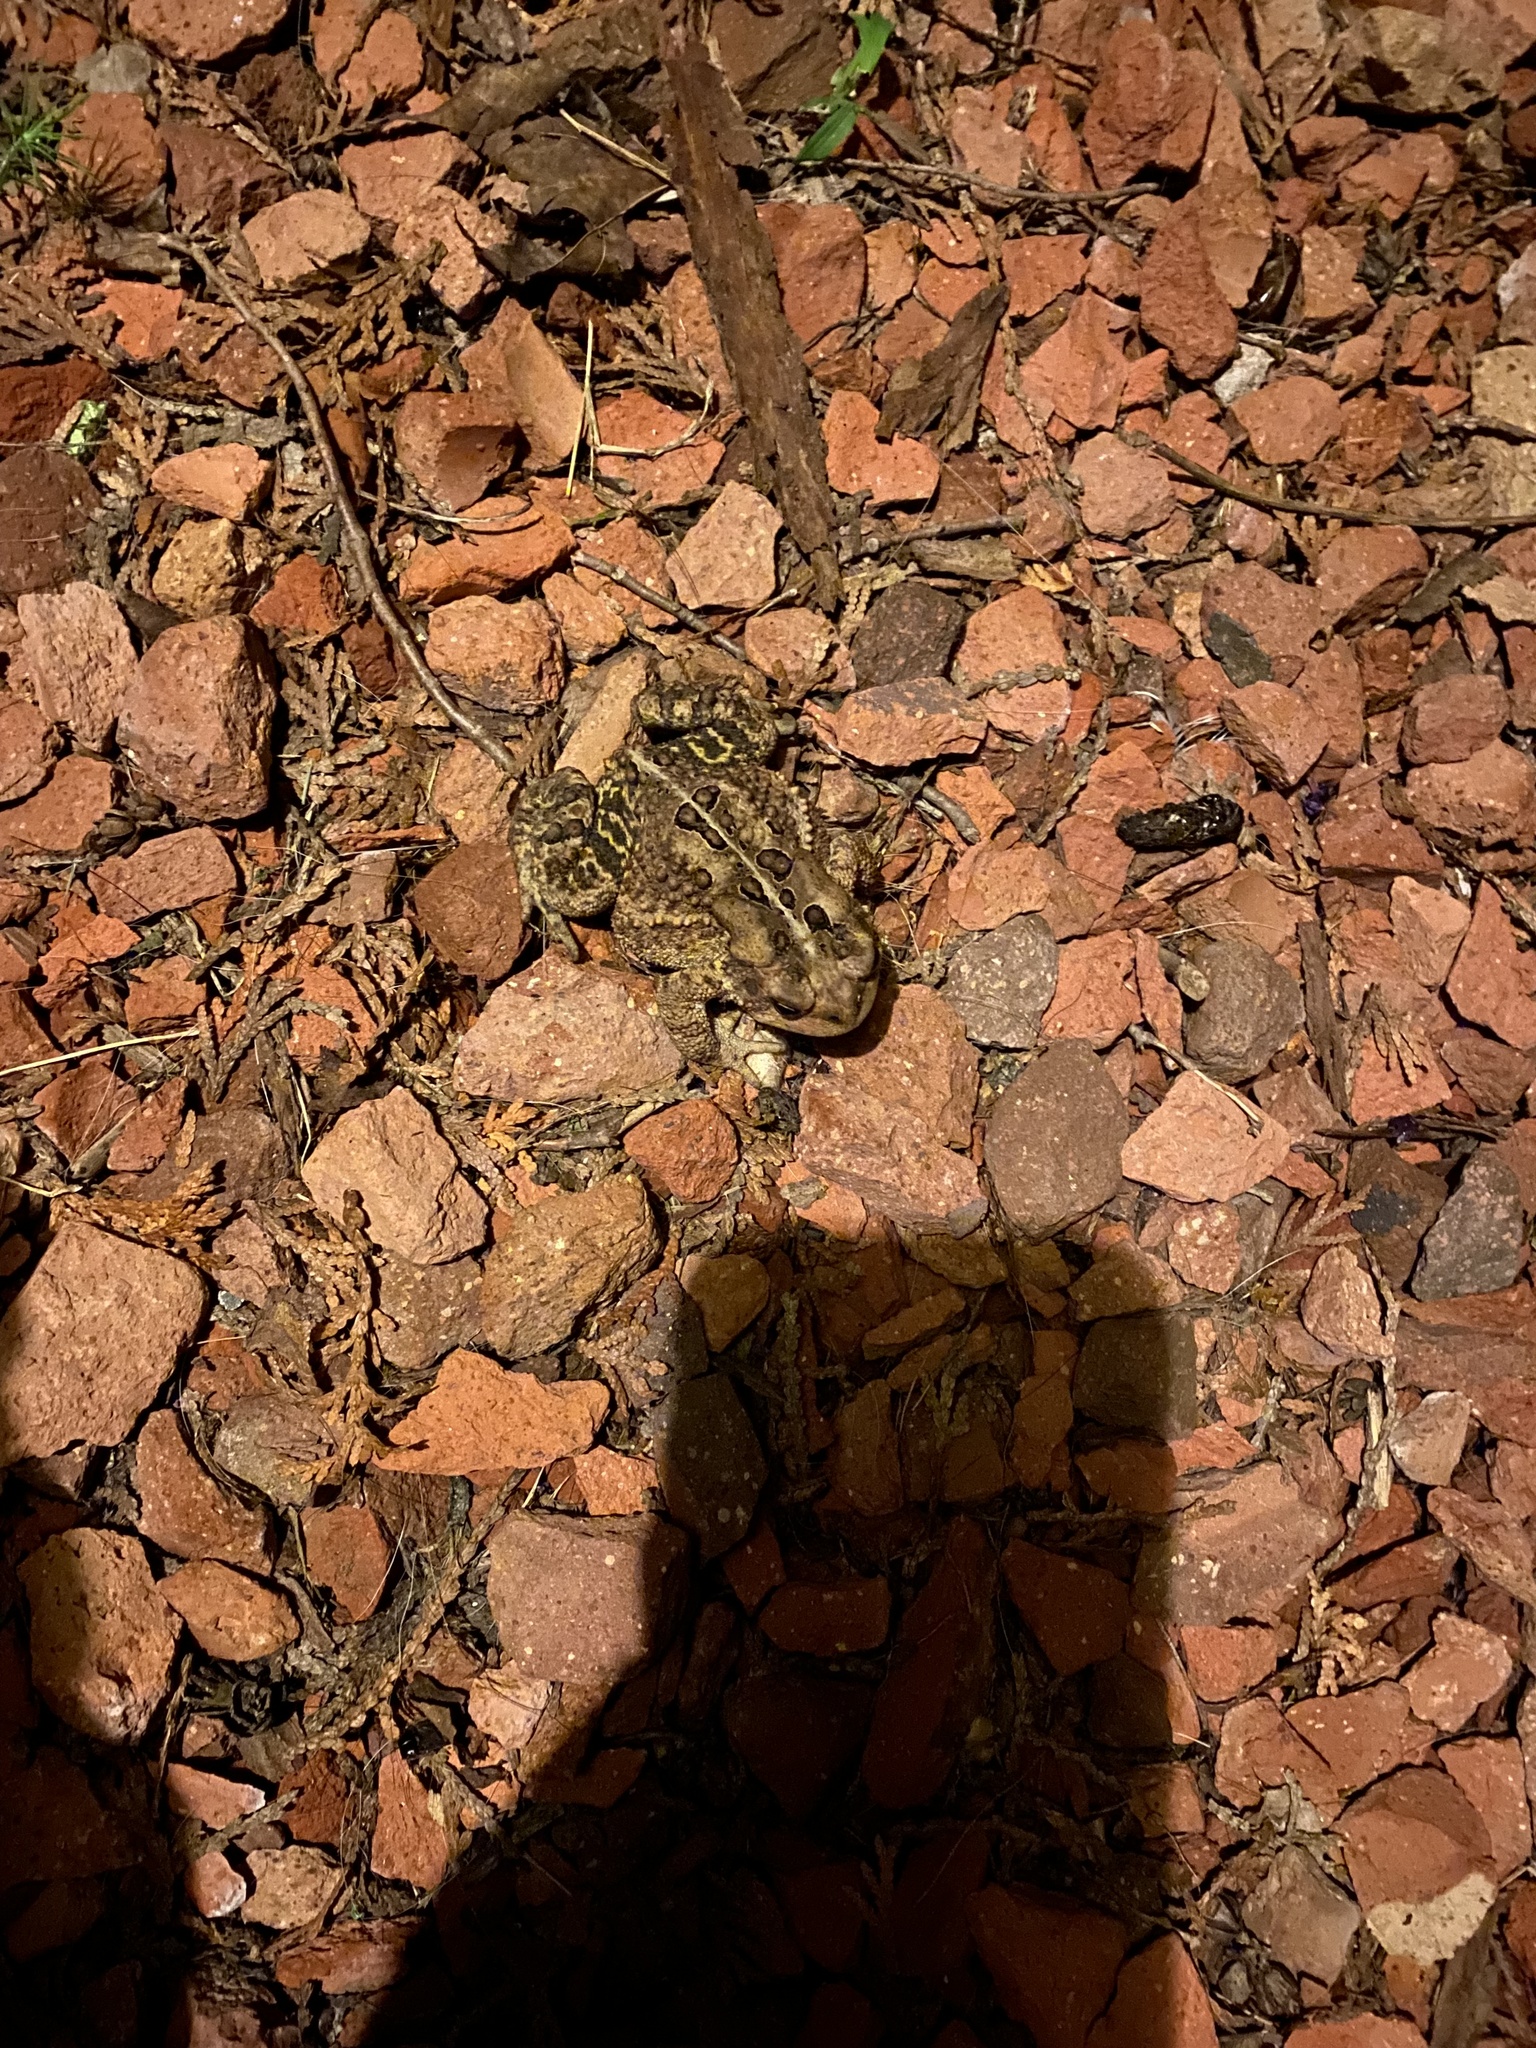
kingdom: Animalia
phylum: Chordata
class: Amphibia
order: Anura
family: Bufonidae
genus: Anaxyrus
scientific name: Anaxyrus americanus
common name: American toad
